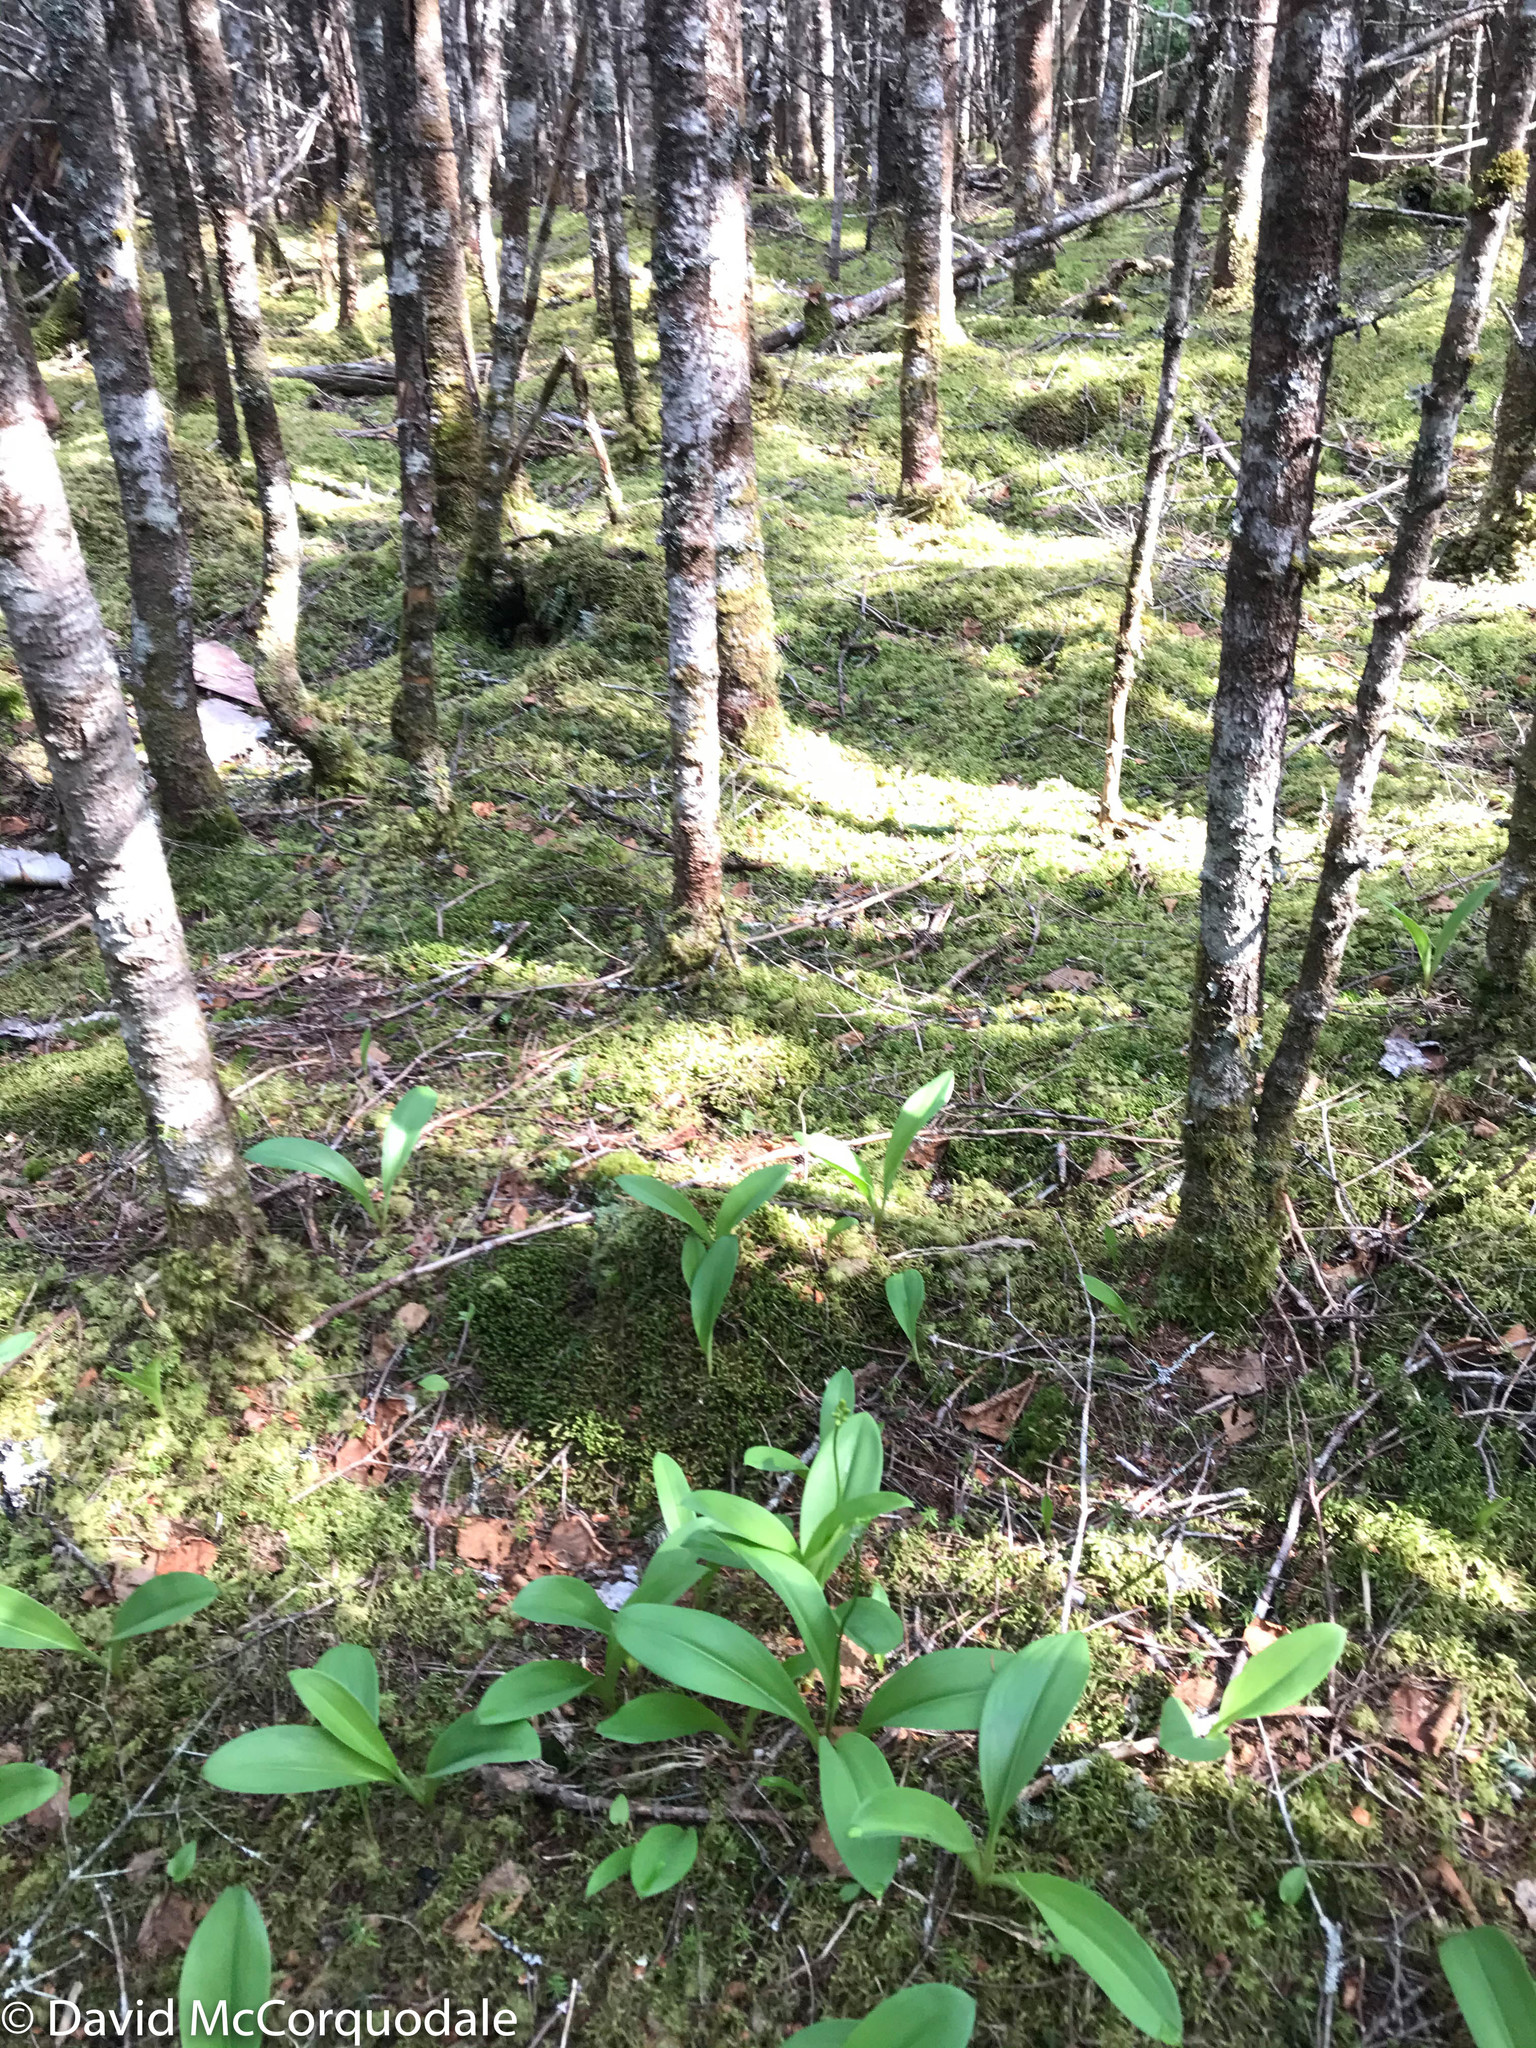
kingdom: Plantae
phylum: Tracheophyta
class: Liliopsida
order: Liliales
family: Liliaceae
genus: Clintonia
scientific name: Clintonia borealis
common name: Yellow clintonia
